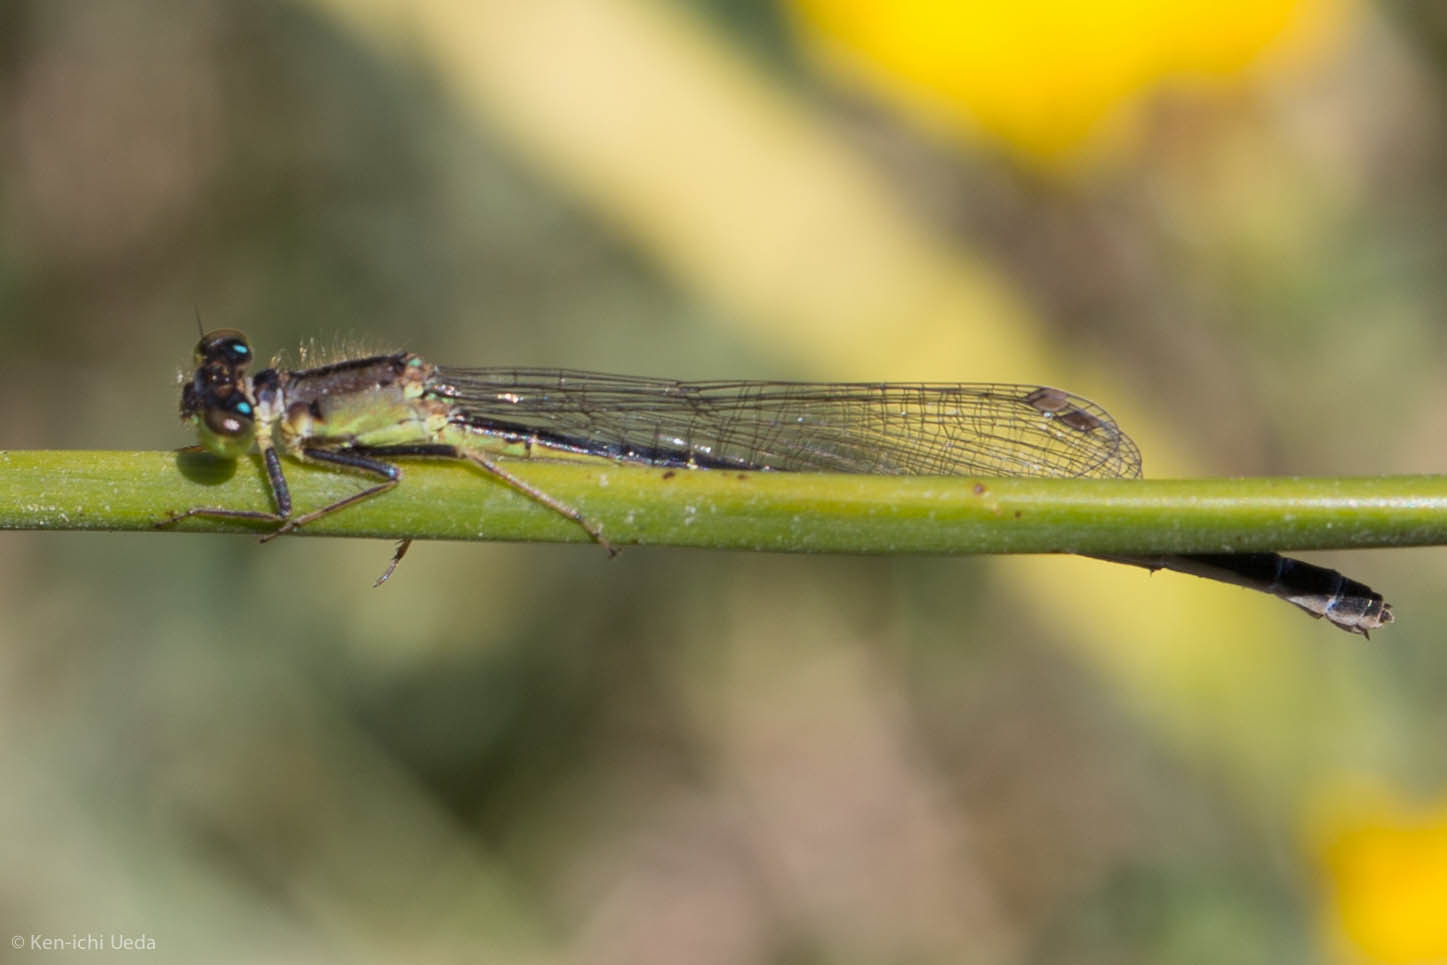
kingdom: Animalia
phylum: Arthropoda
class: Insecta
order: Odonata
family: Coenagrionidae
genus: Ischnura
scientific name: Ischnura cervula
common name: Pacific forktail
